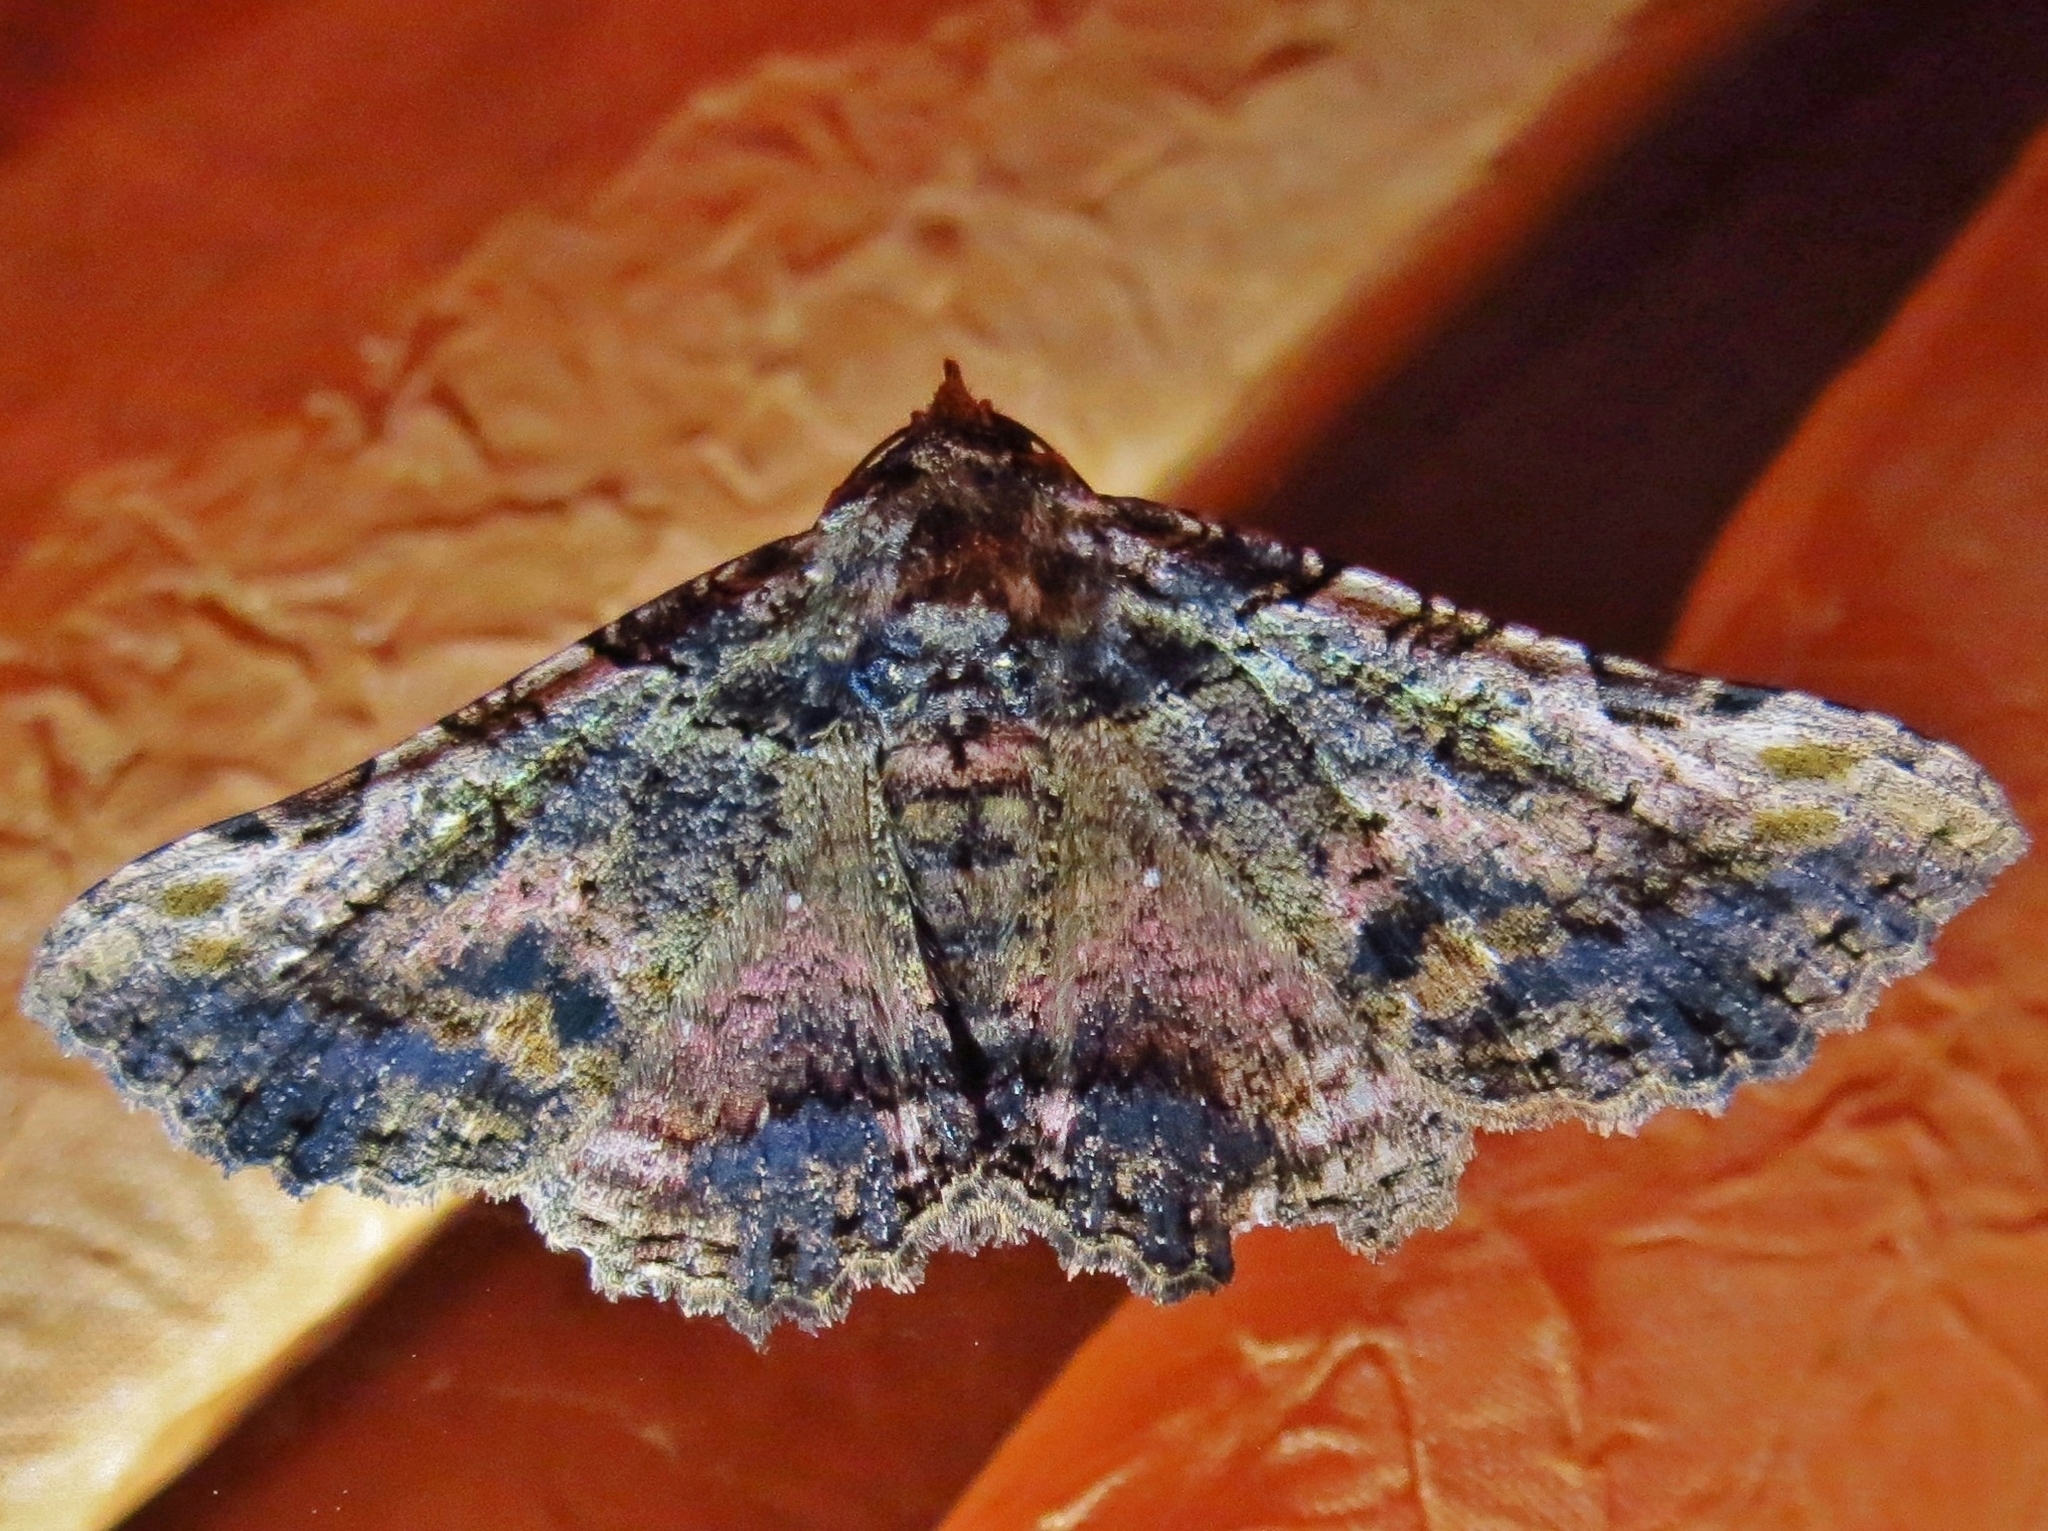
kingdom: Animalia
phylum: Arthropoda
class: Insecta
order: Lepidoptera
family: Erebidae
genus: Metria
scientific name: Metria celia
